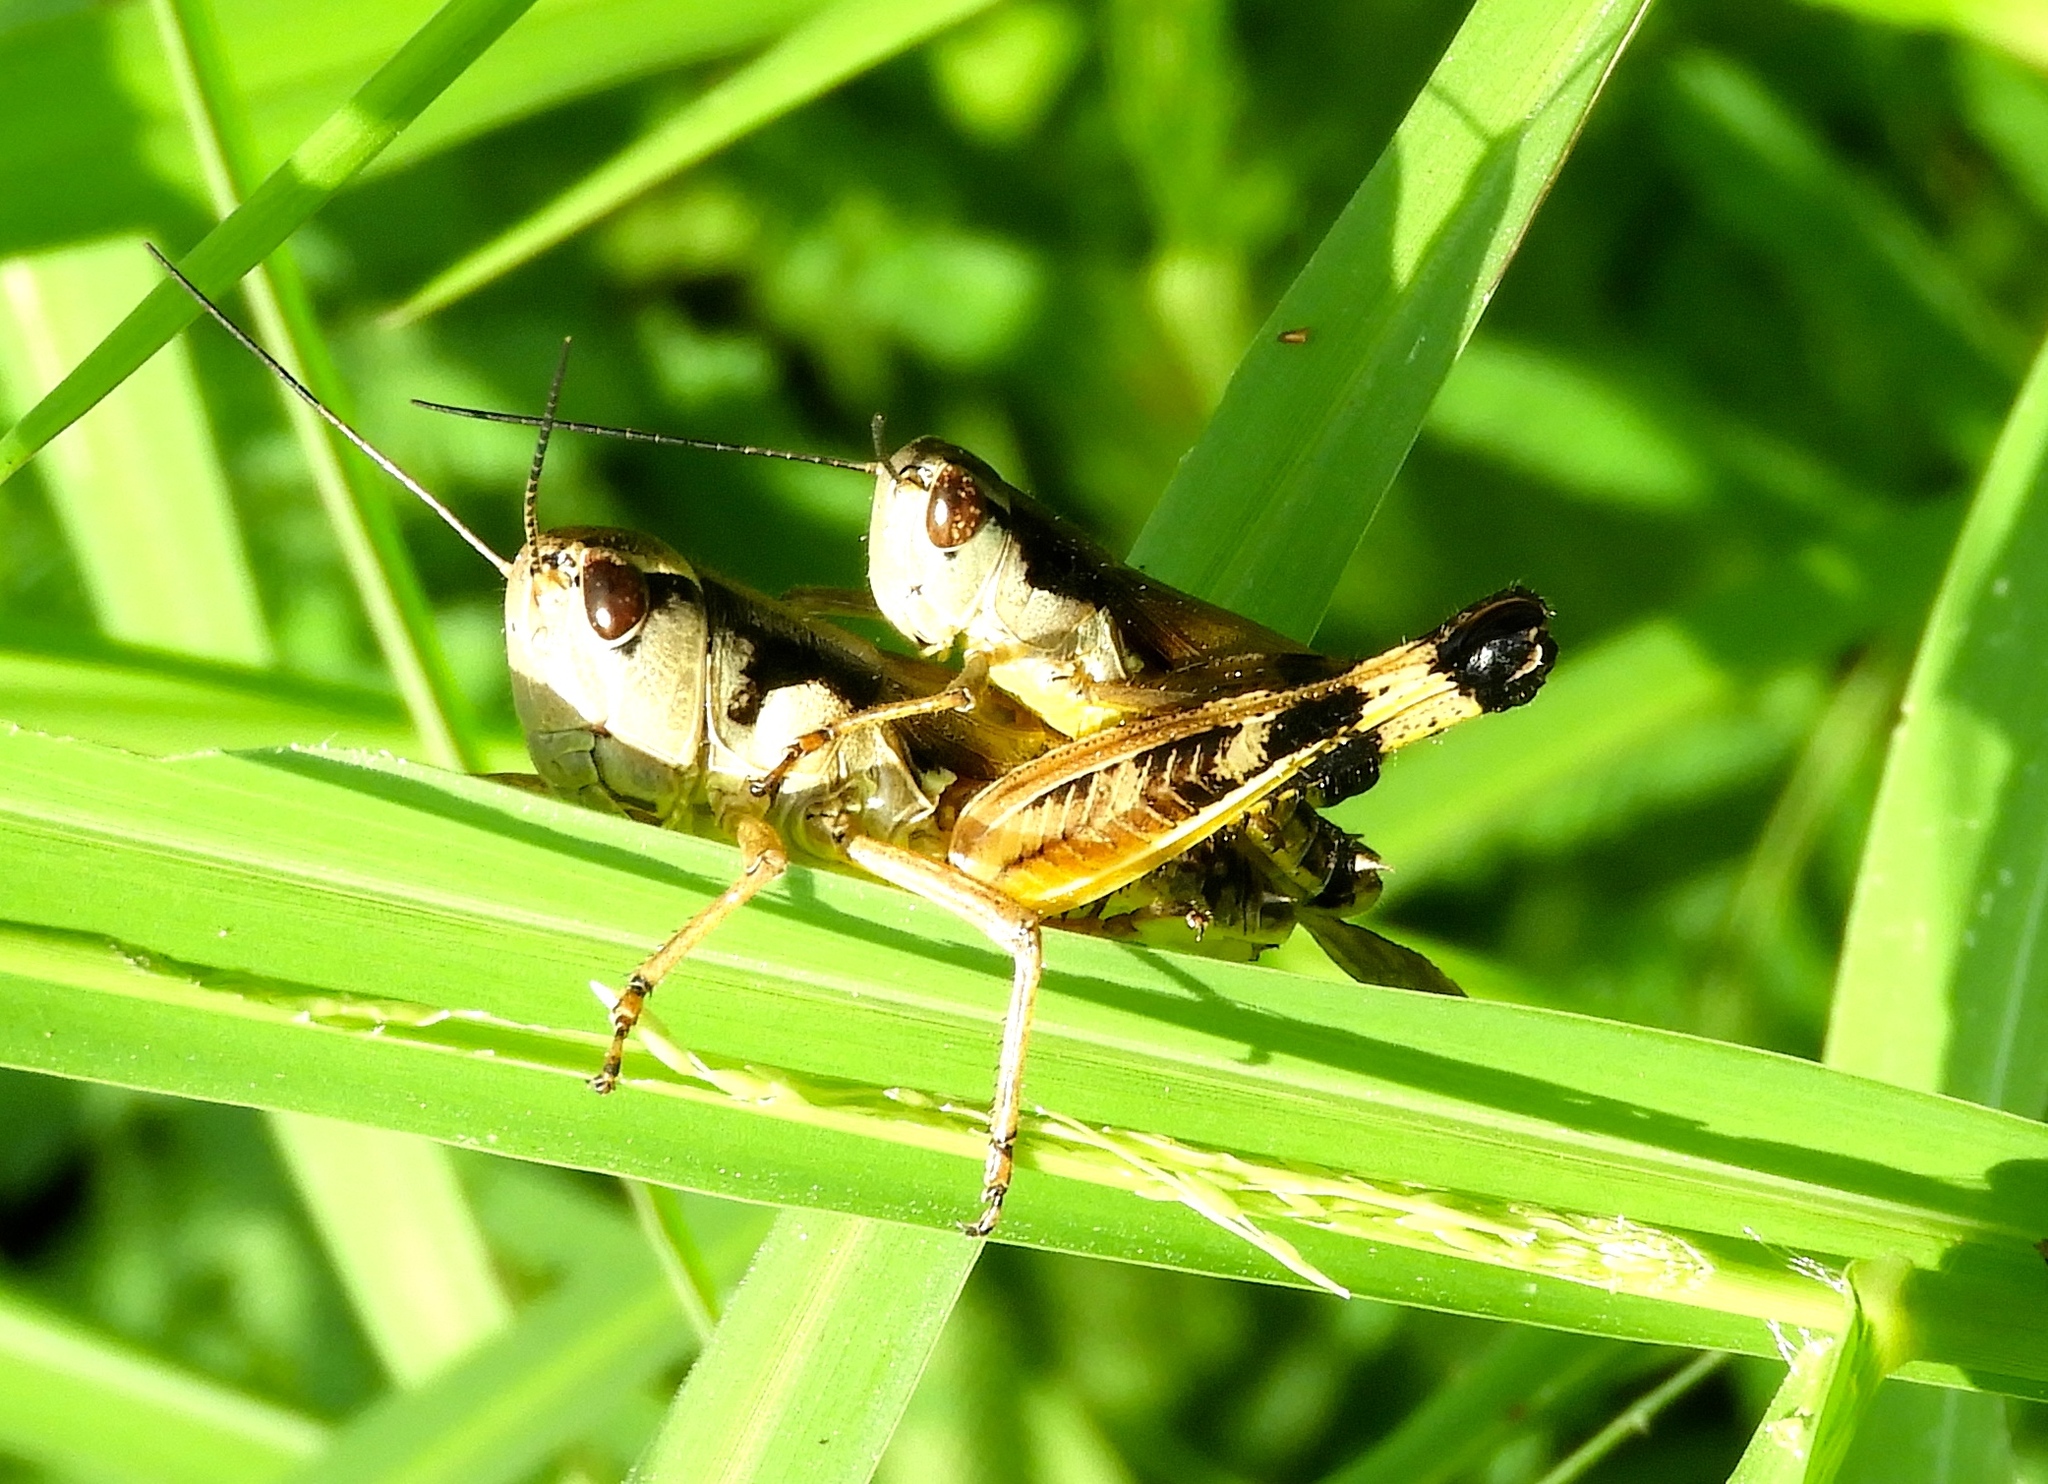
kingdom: Animalia
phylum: Arthropoda
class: Insecta
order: Orthoptera
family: Acrididae
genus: Boopedon
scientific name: Boopedon flaviventris
